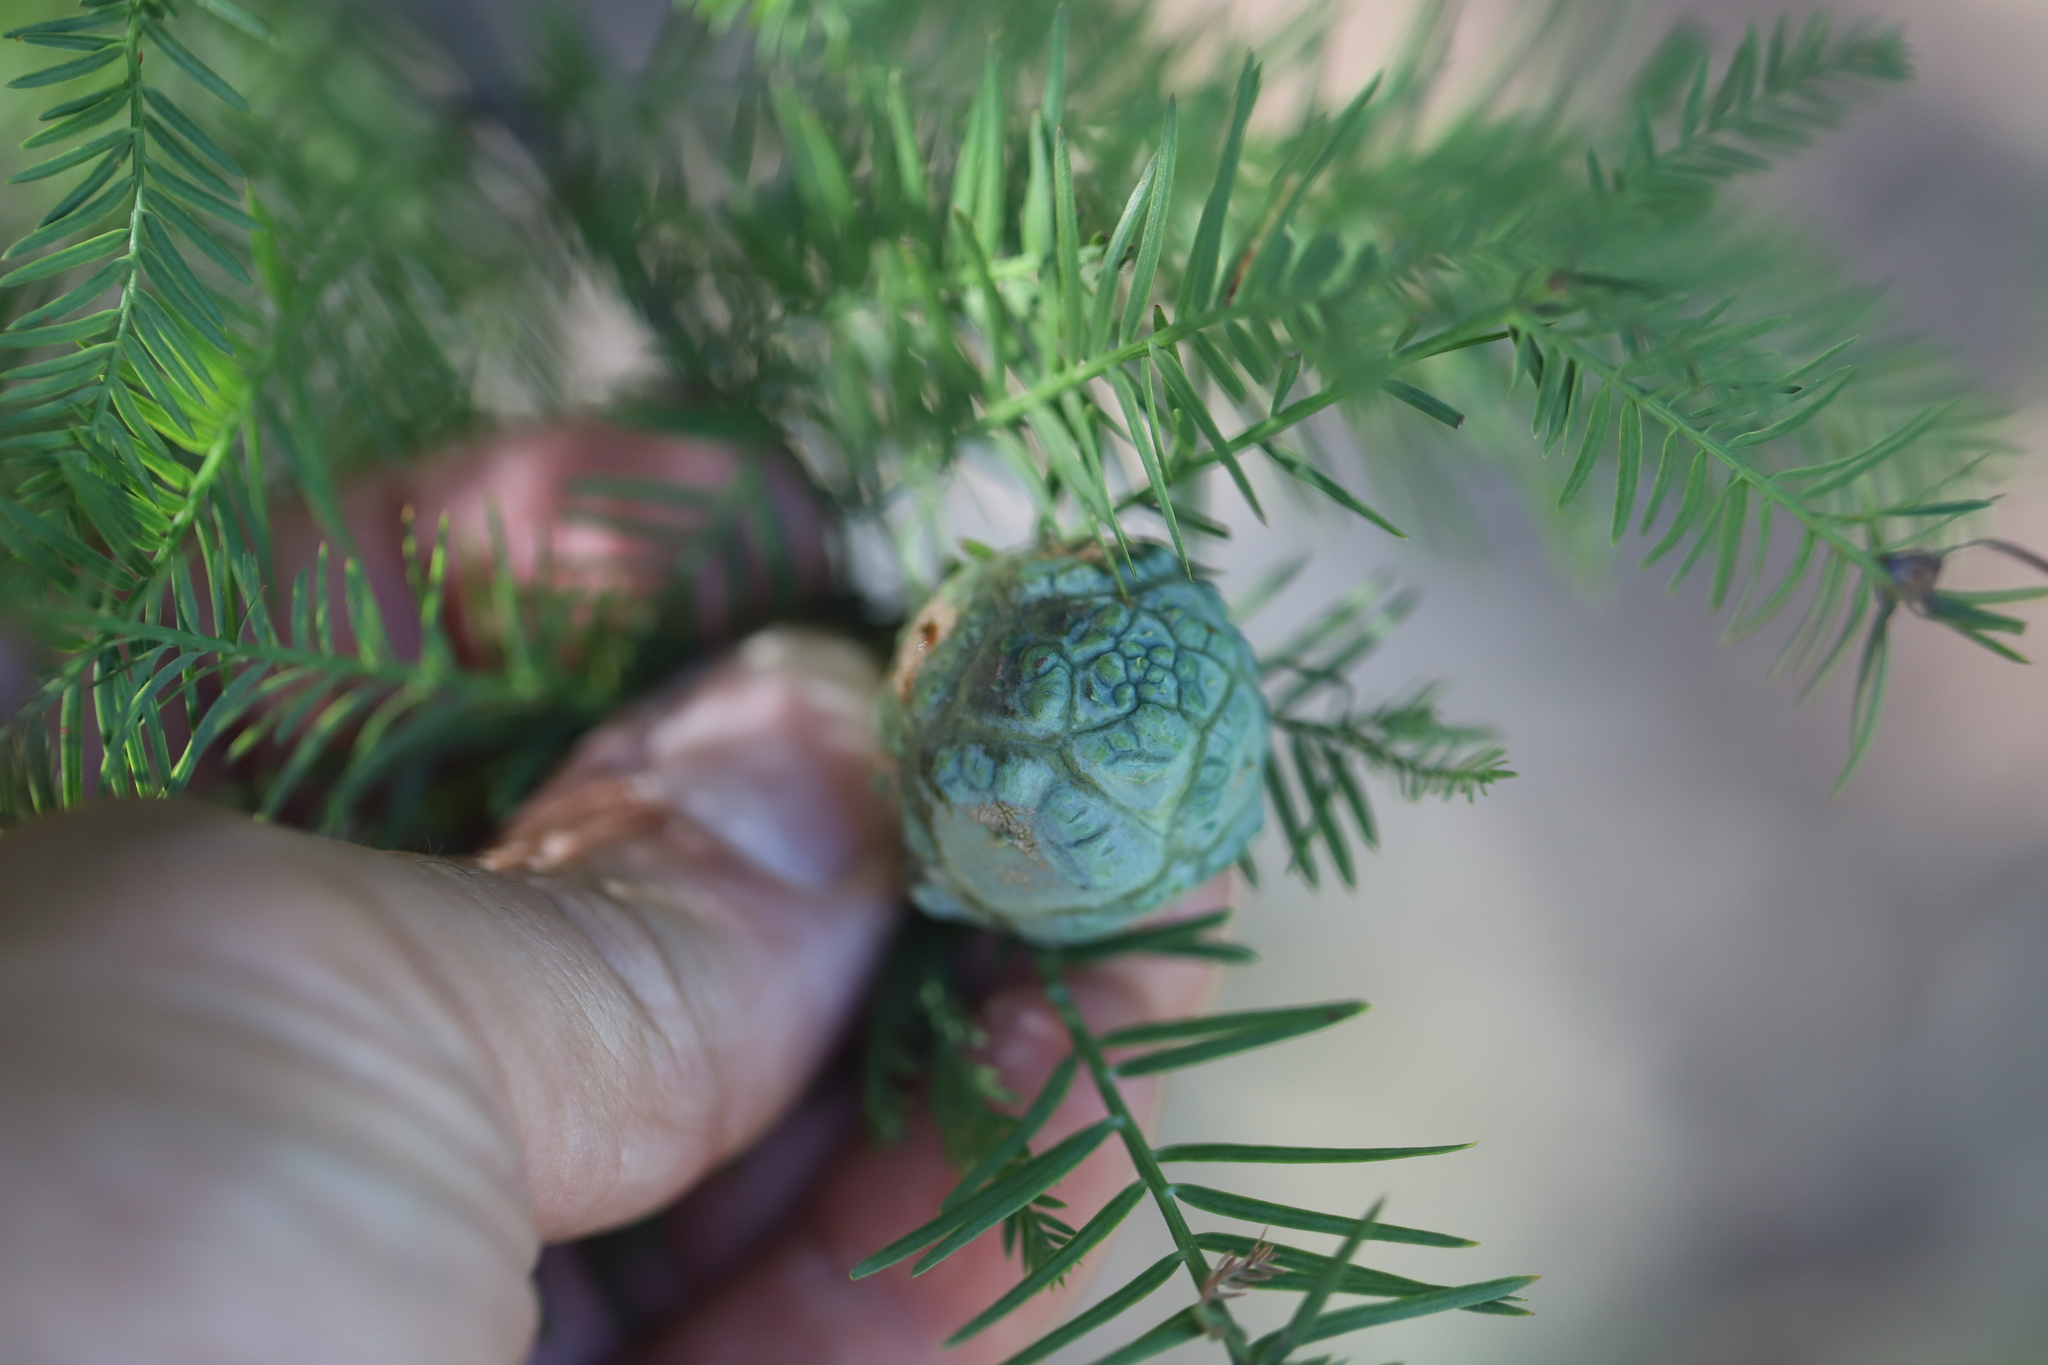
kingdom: Animalia
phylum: Arthropoda
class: Insecta
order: Diptera
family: Cecidomyiidae
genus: Taxodiomyia
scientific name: Taxodiomyia cupressiananassa
